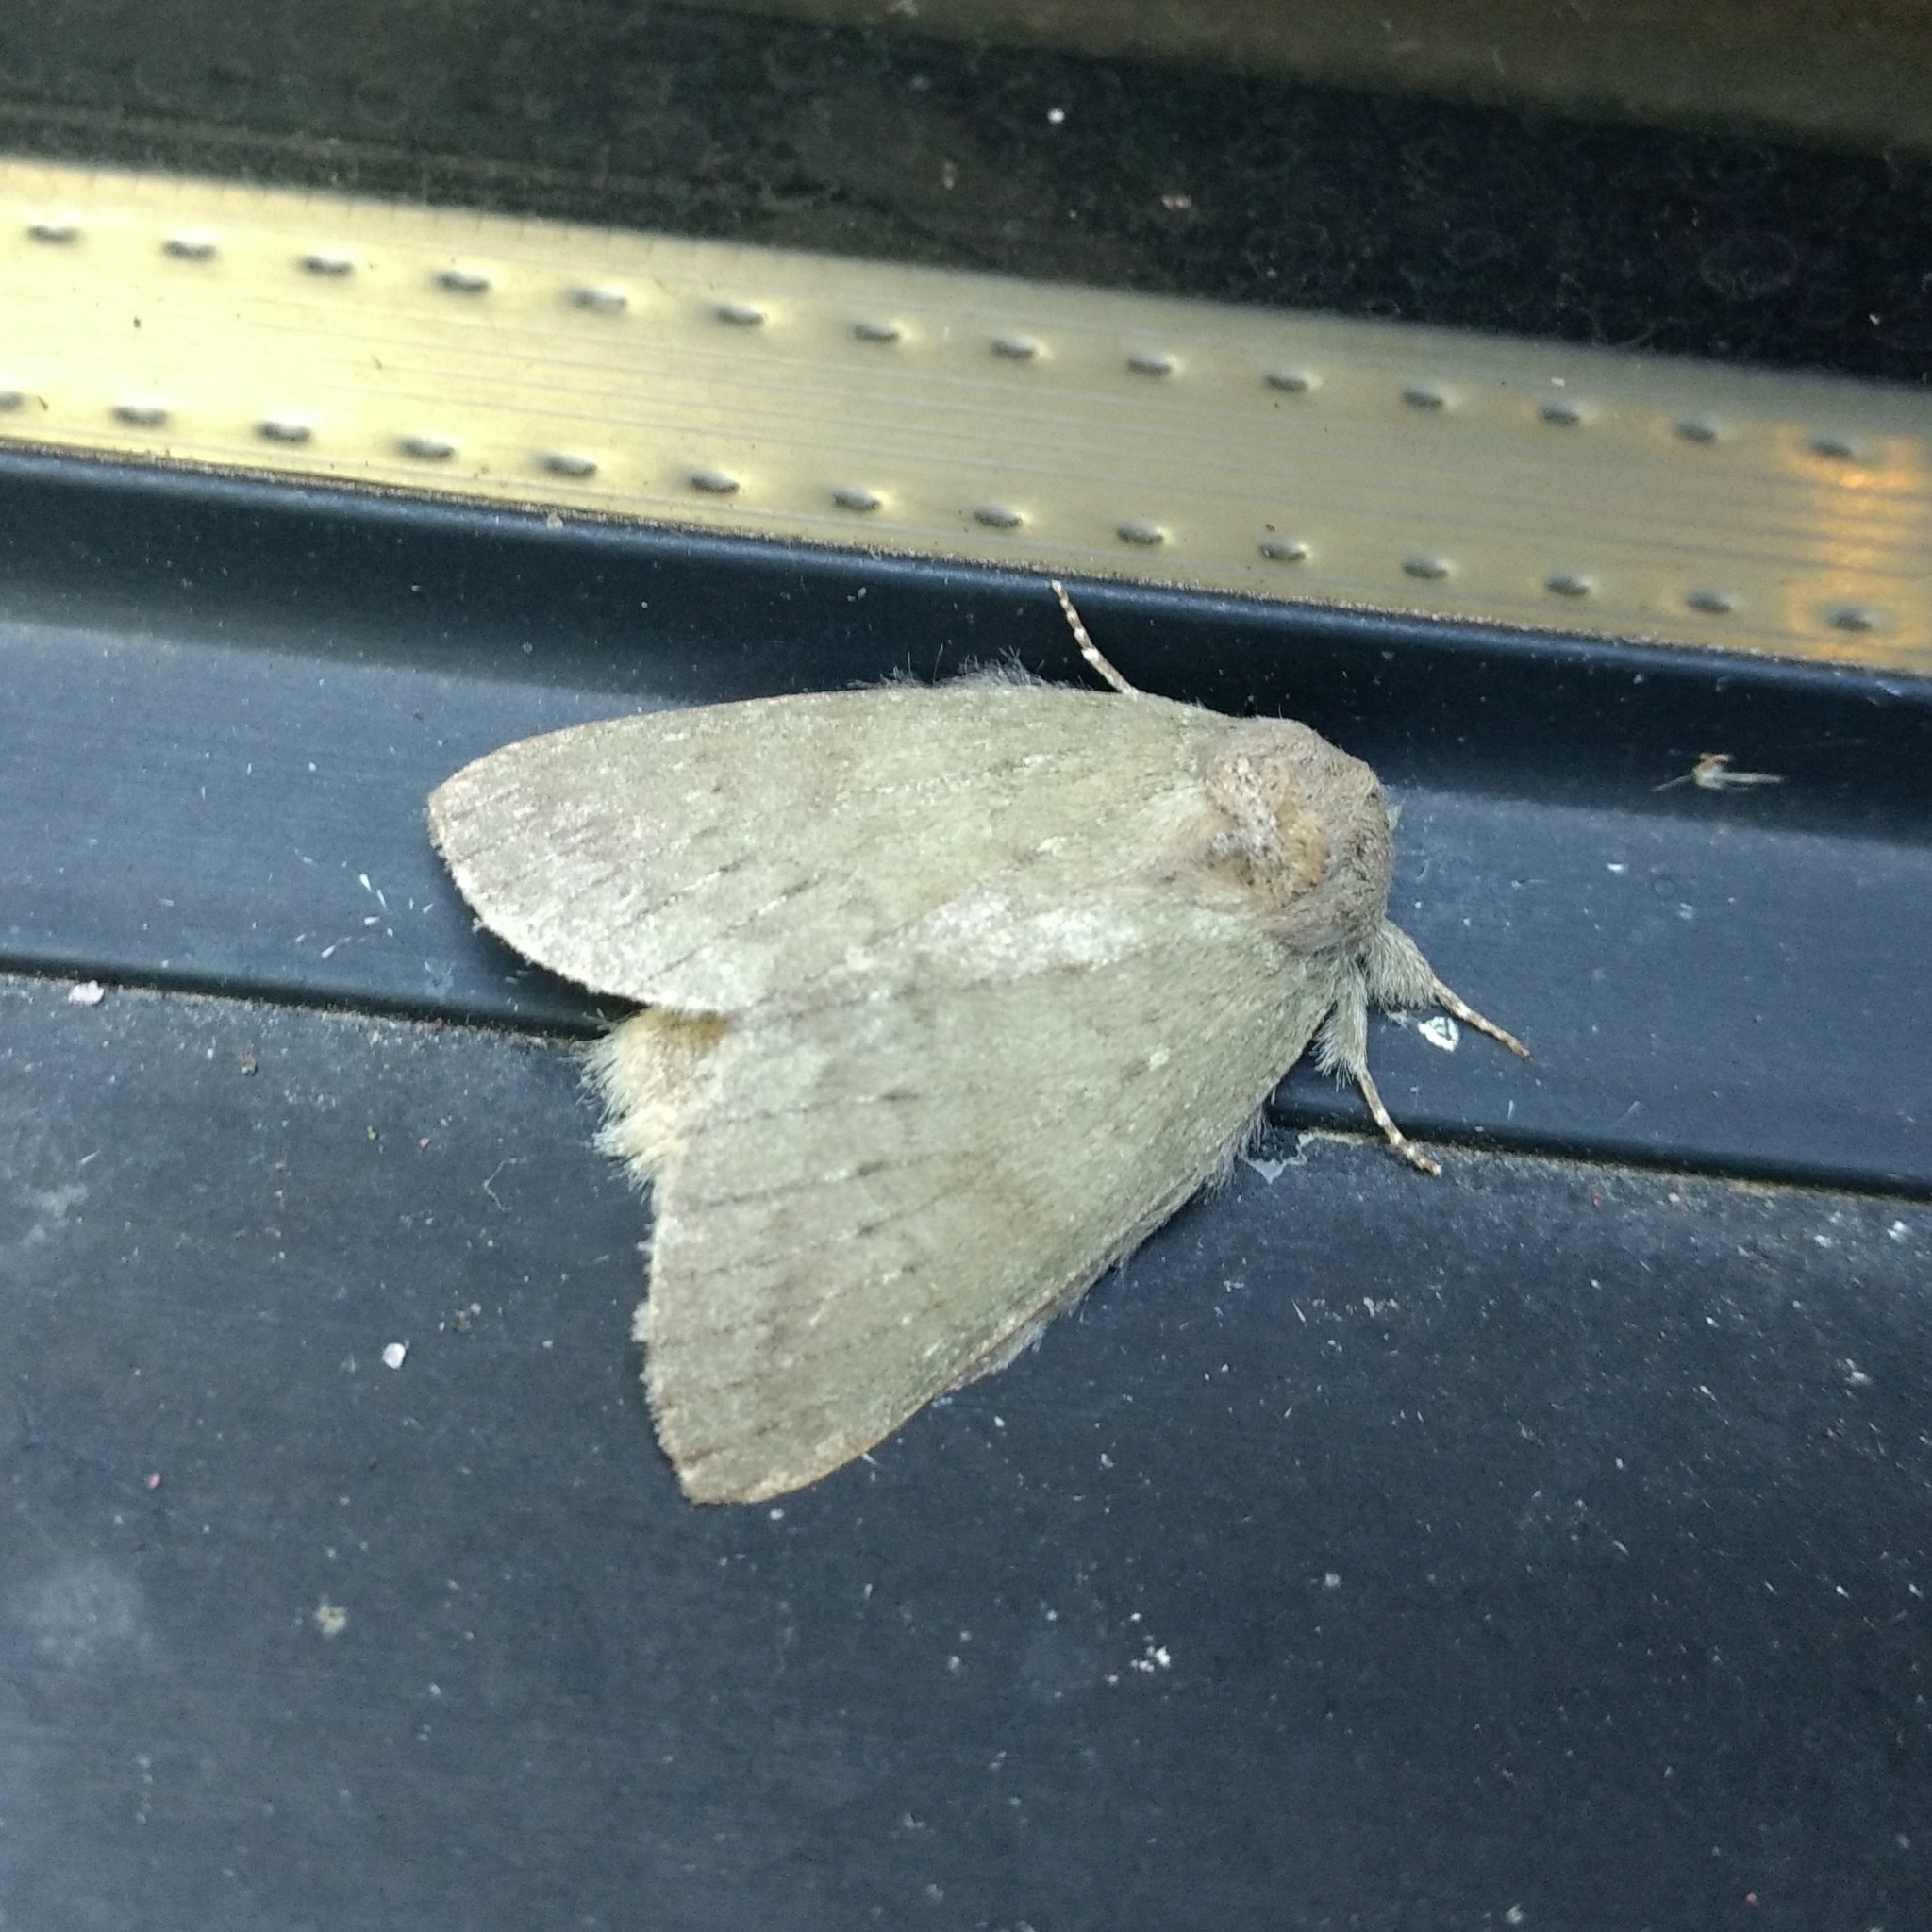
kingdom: Animalia
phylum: Arthropoda
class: Insecta
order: Lepidoptera
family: Notodontidae
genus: Misogada
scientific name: Misogada unicolor
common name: Drab prominent
